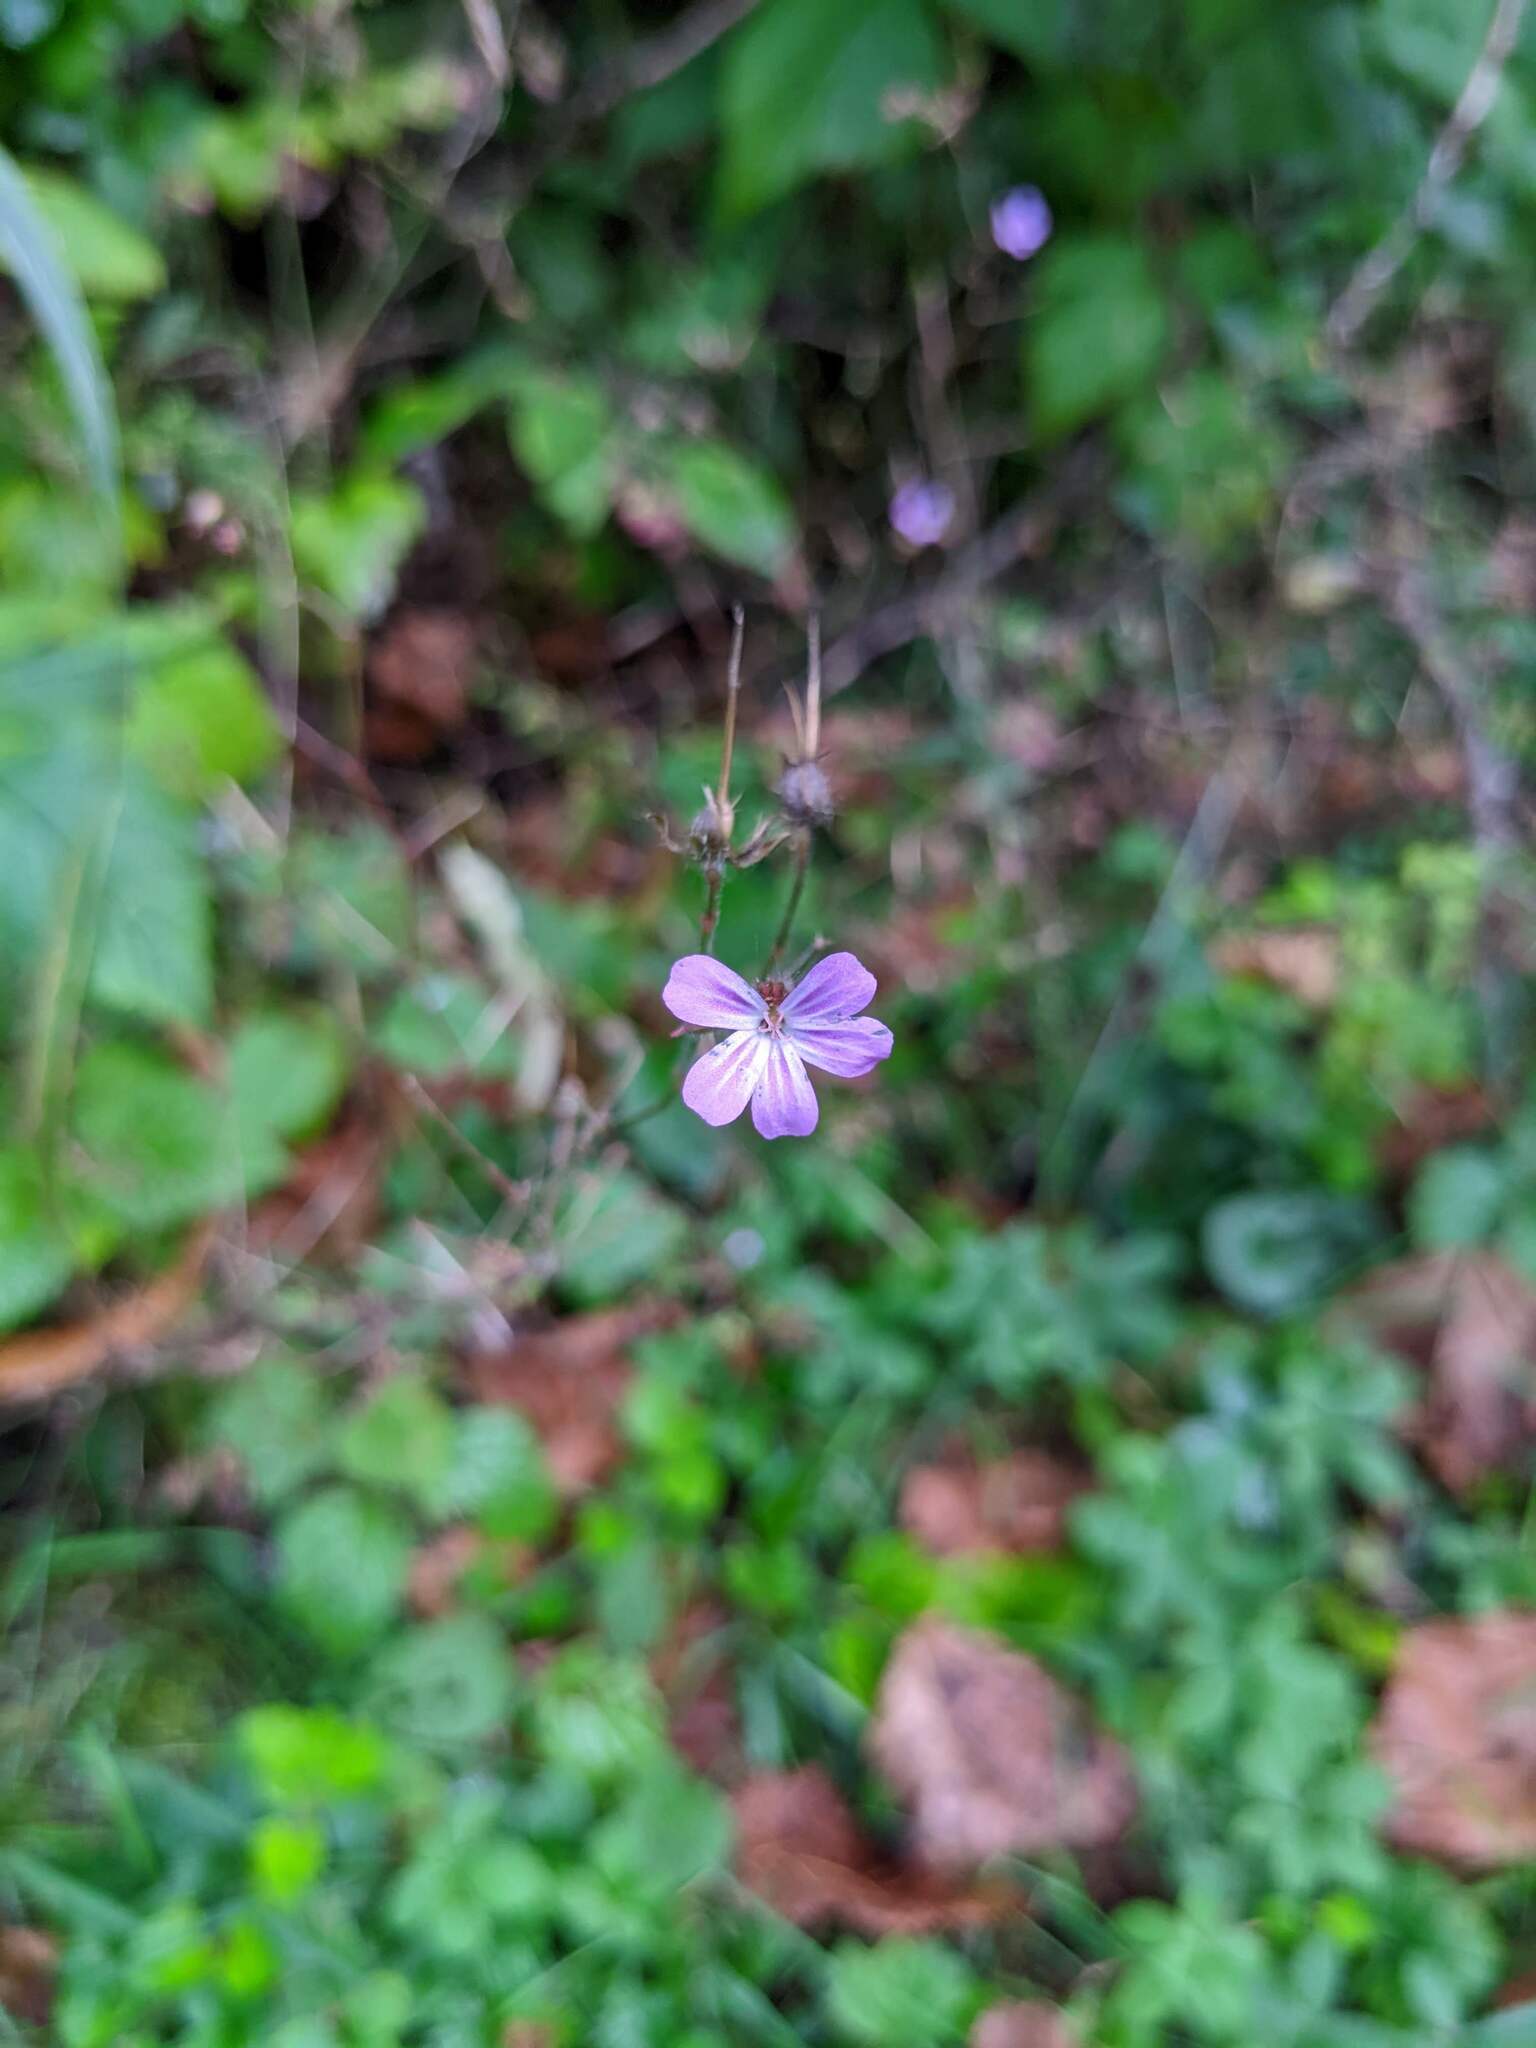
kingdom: Plantae
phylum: Tracheophyta
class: Magnoliopsida
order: Geraniales
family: Geraniaceae
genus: Geranium
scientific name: Geranium robertianum
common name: Herb-robert
